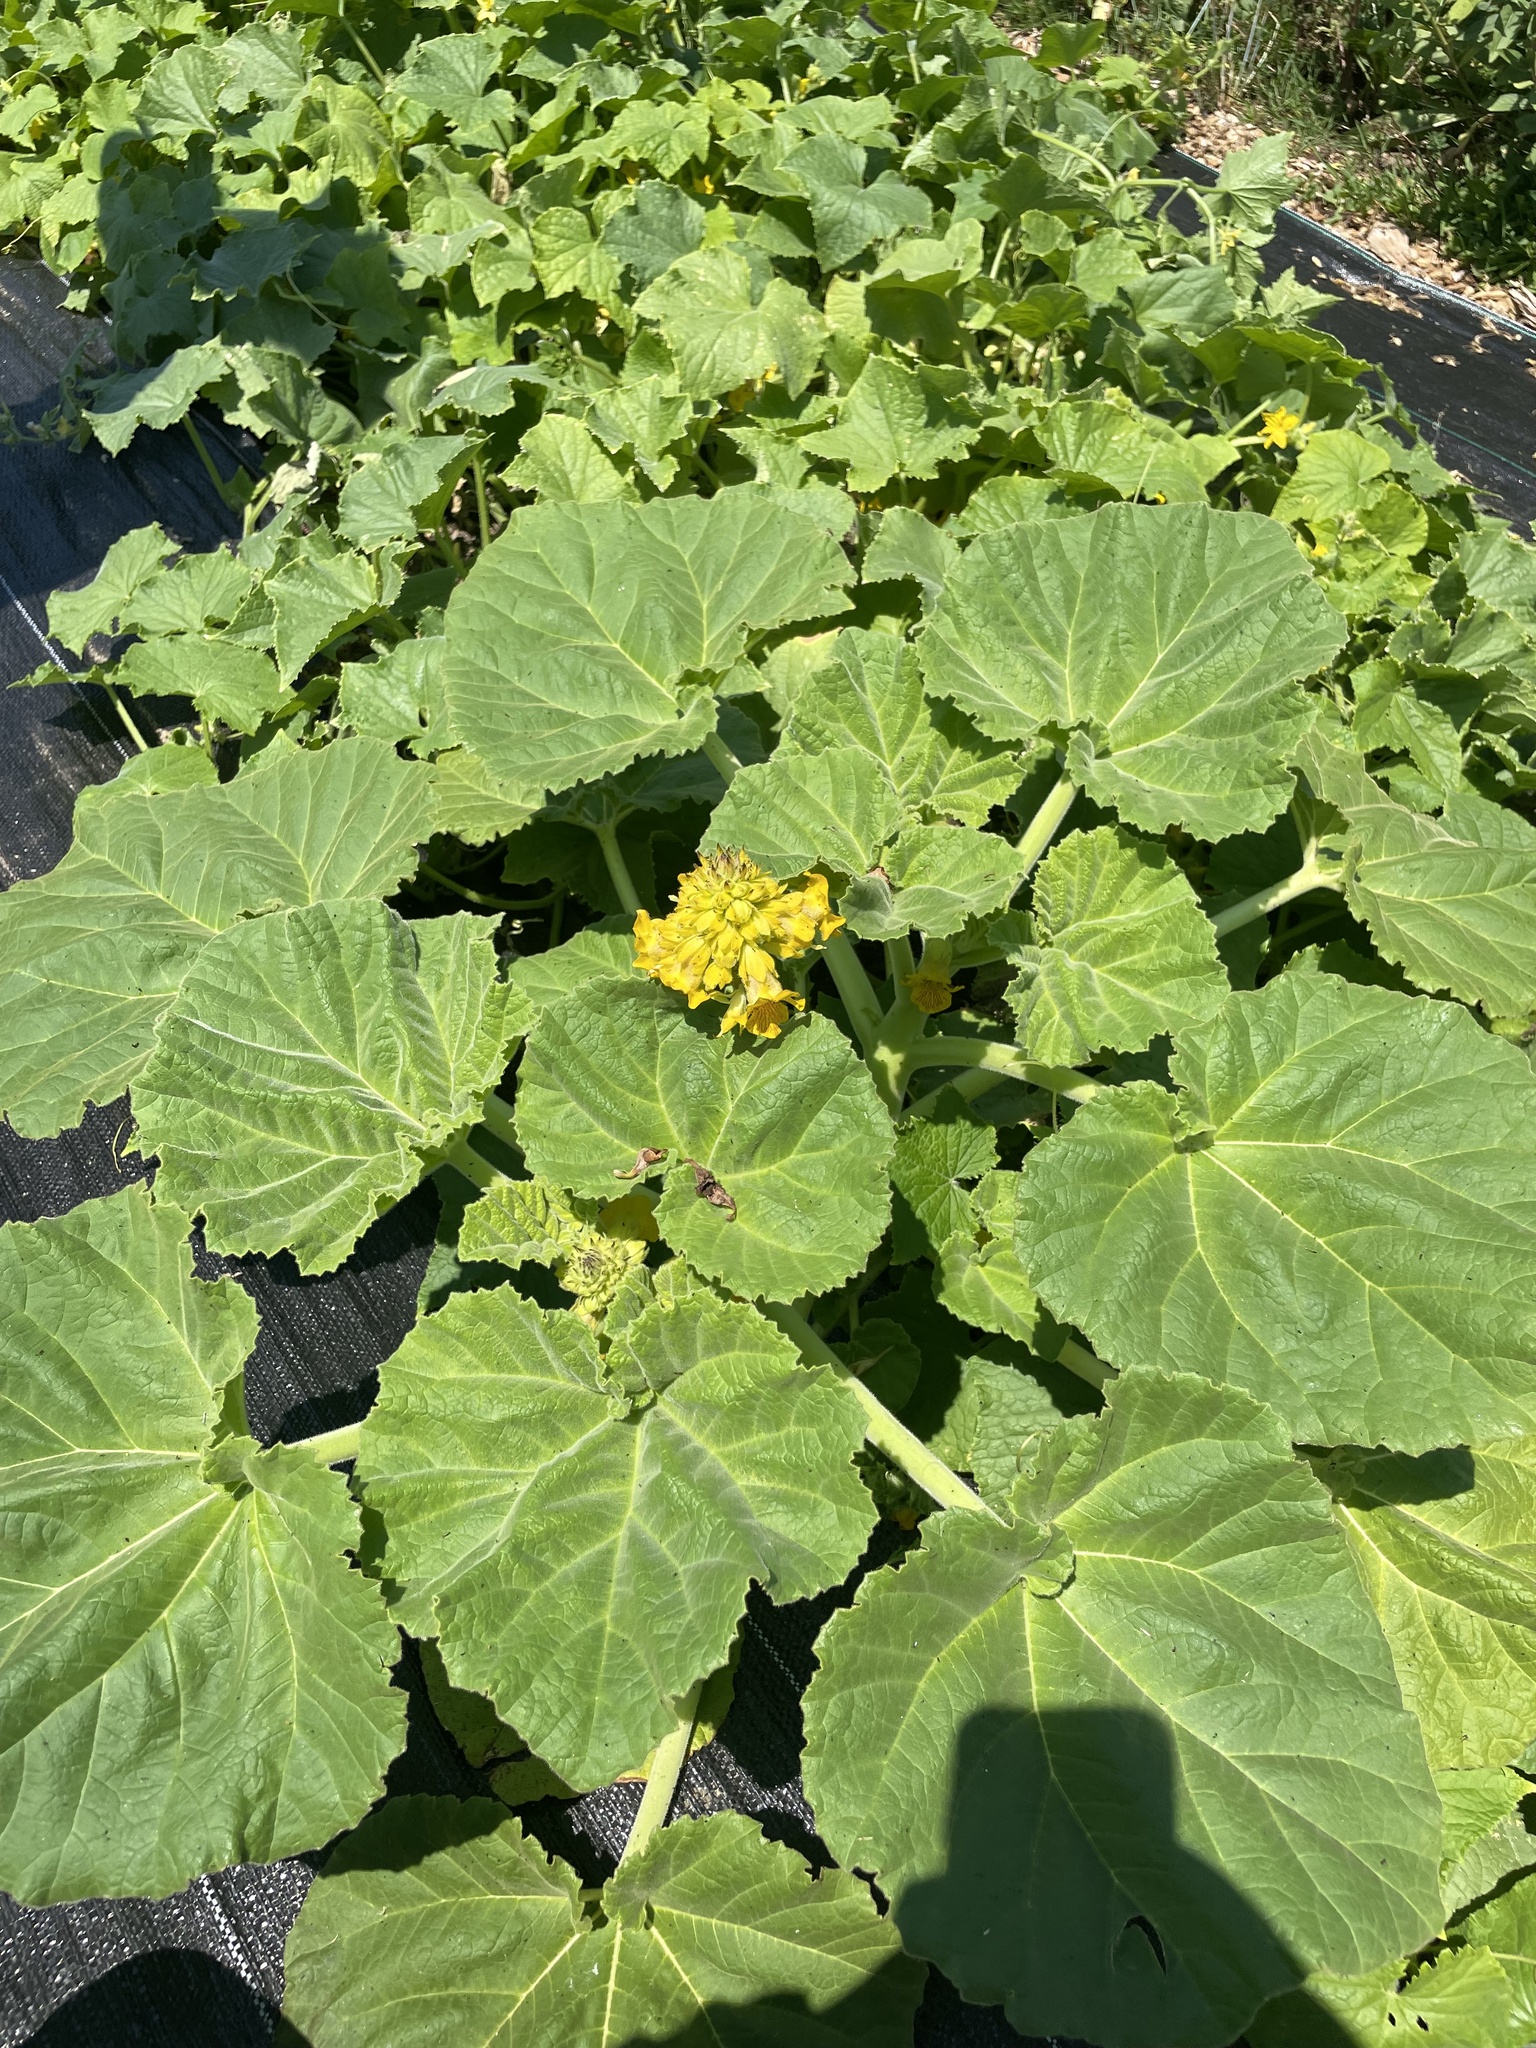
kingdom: Plantae
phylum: Tracheophyta
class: Magnoliopsida
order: Lamiales
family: Martyniaceae
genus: Ibicella
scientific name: Ibicella lutea
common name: Yellow unicorn-plant
